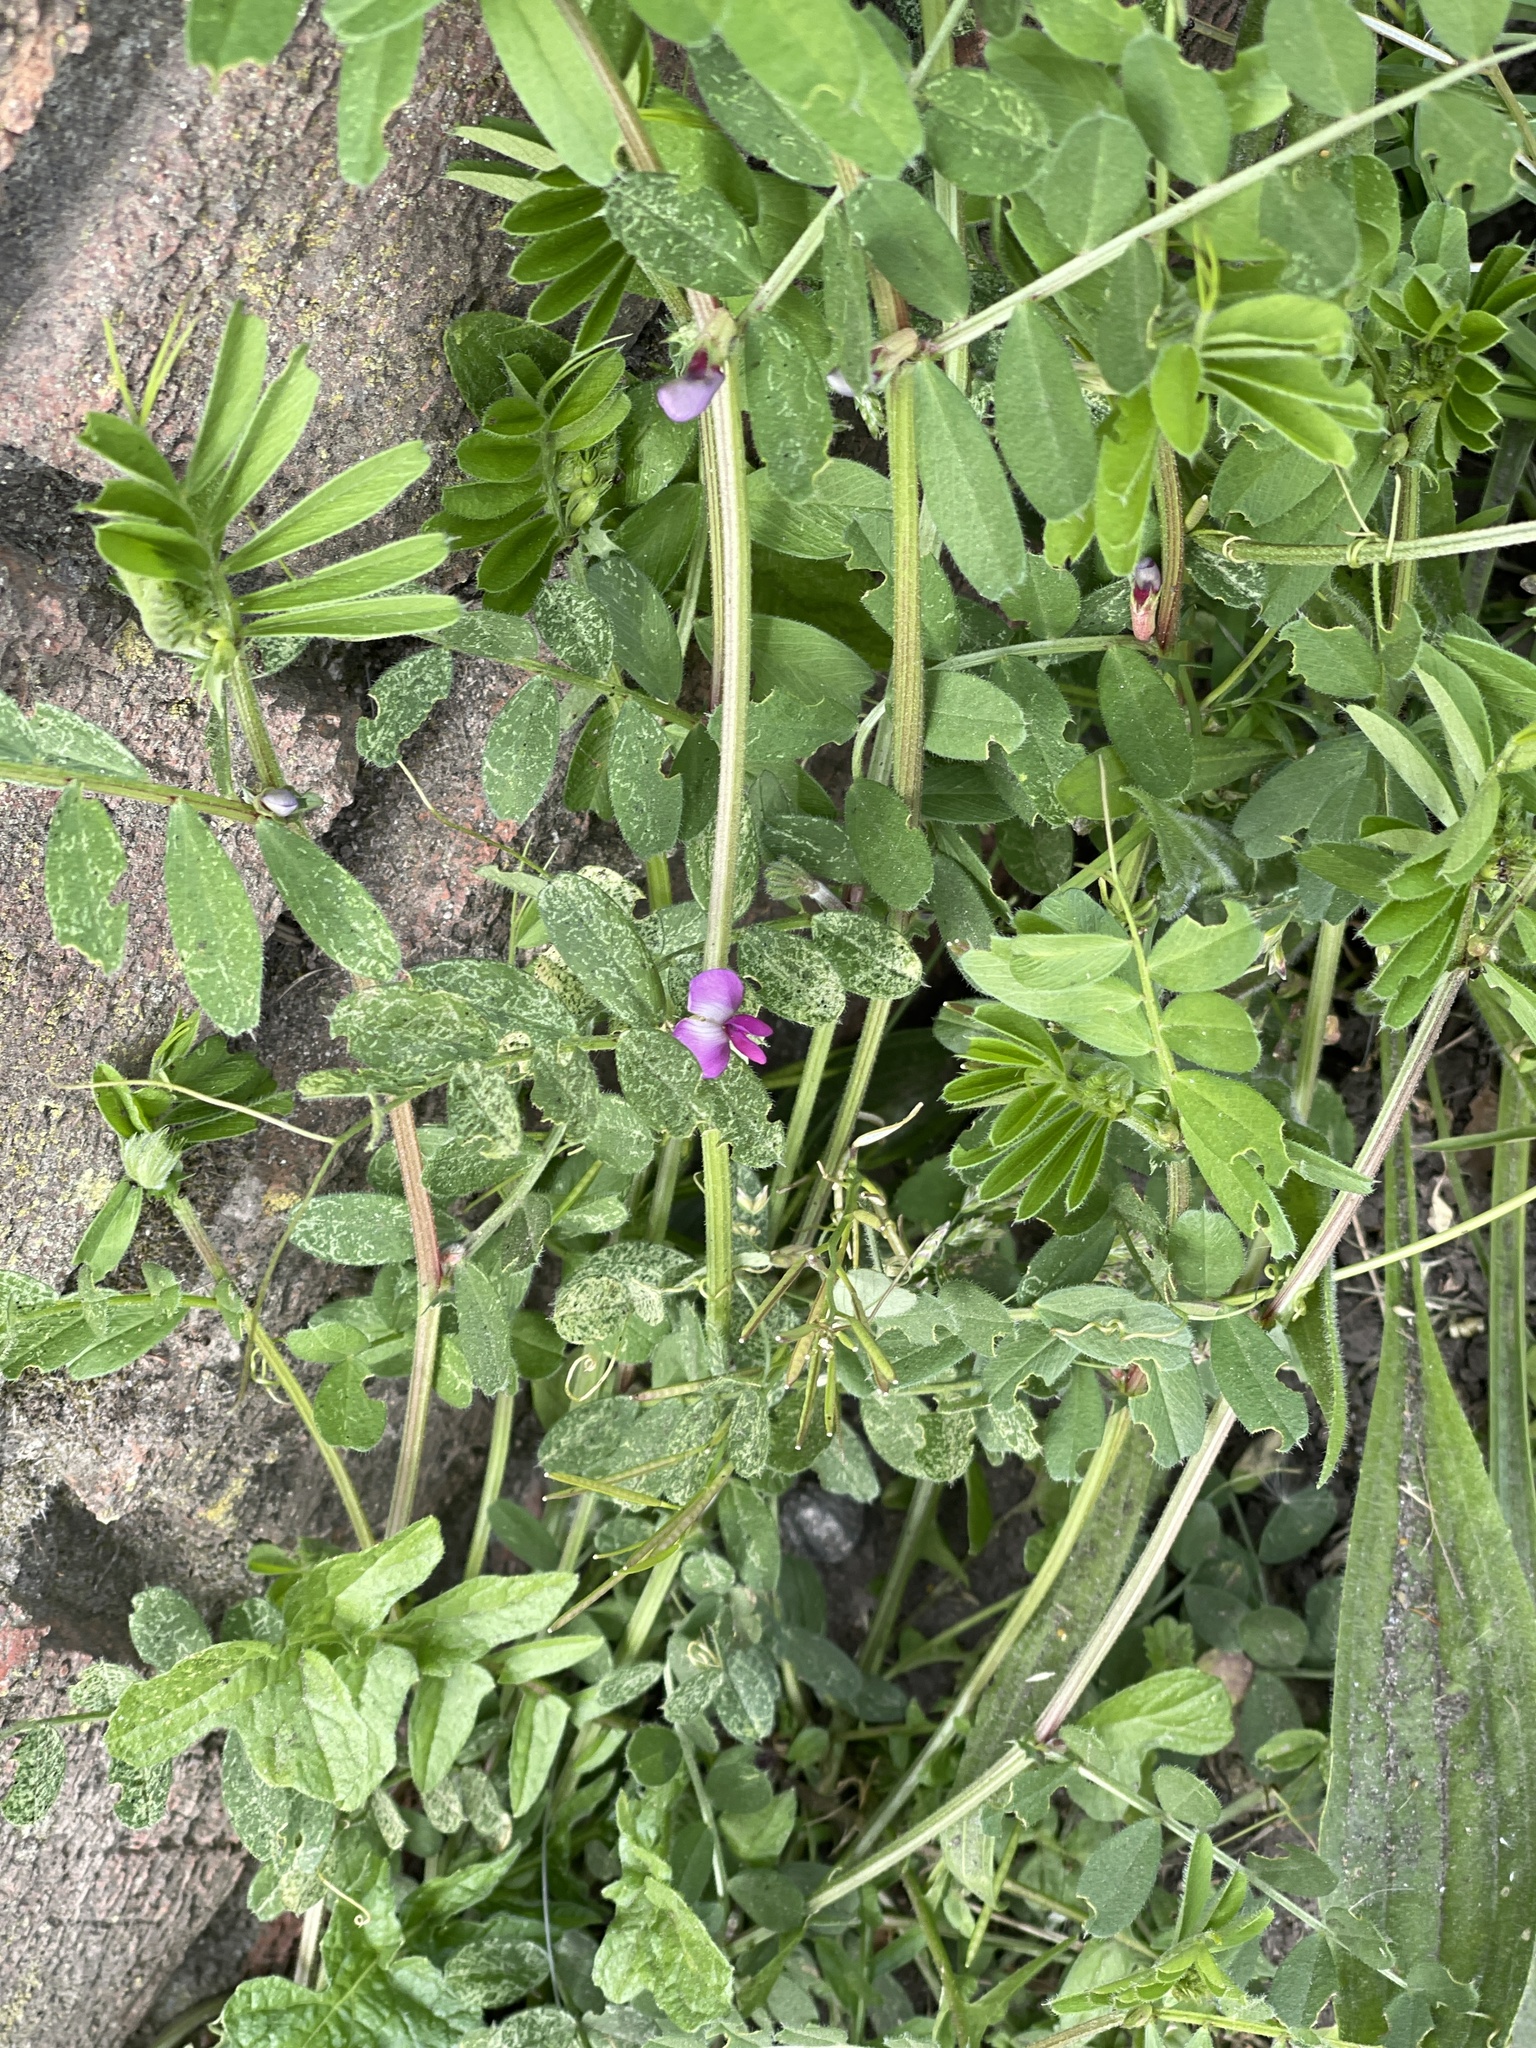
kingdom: Plantae
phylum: Tracheophyta
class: Magnoliopsida
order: Fabales
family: Fabaceae
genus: Vicia
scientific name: Vicia sativa
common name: Garden vetch
